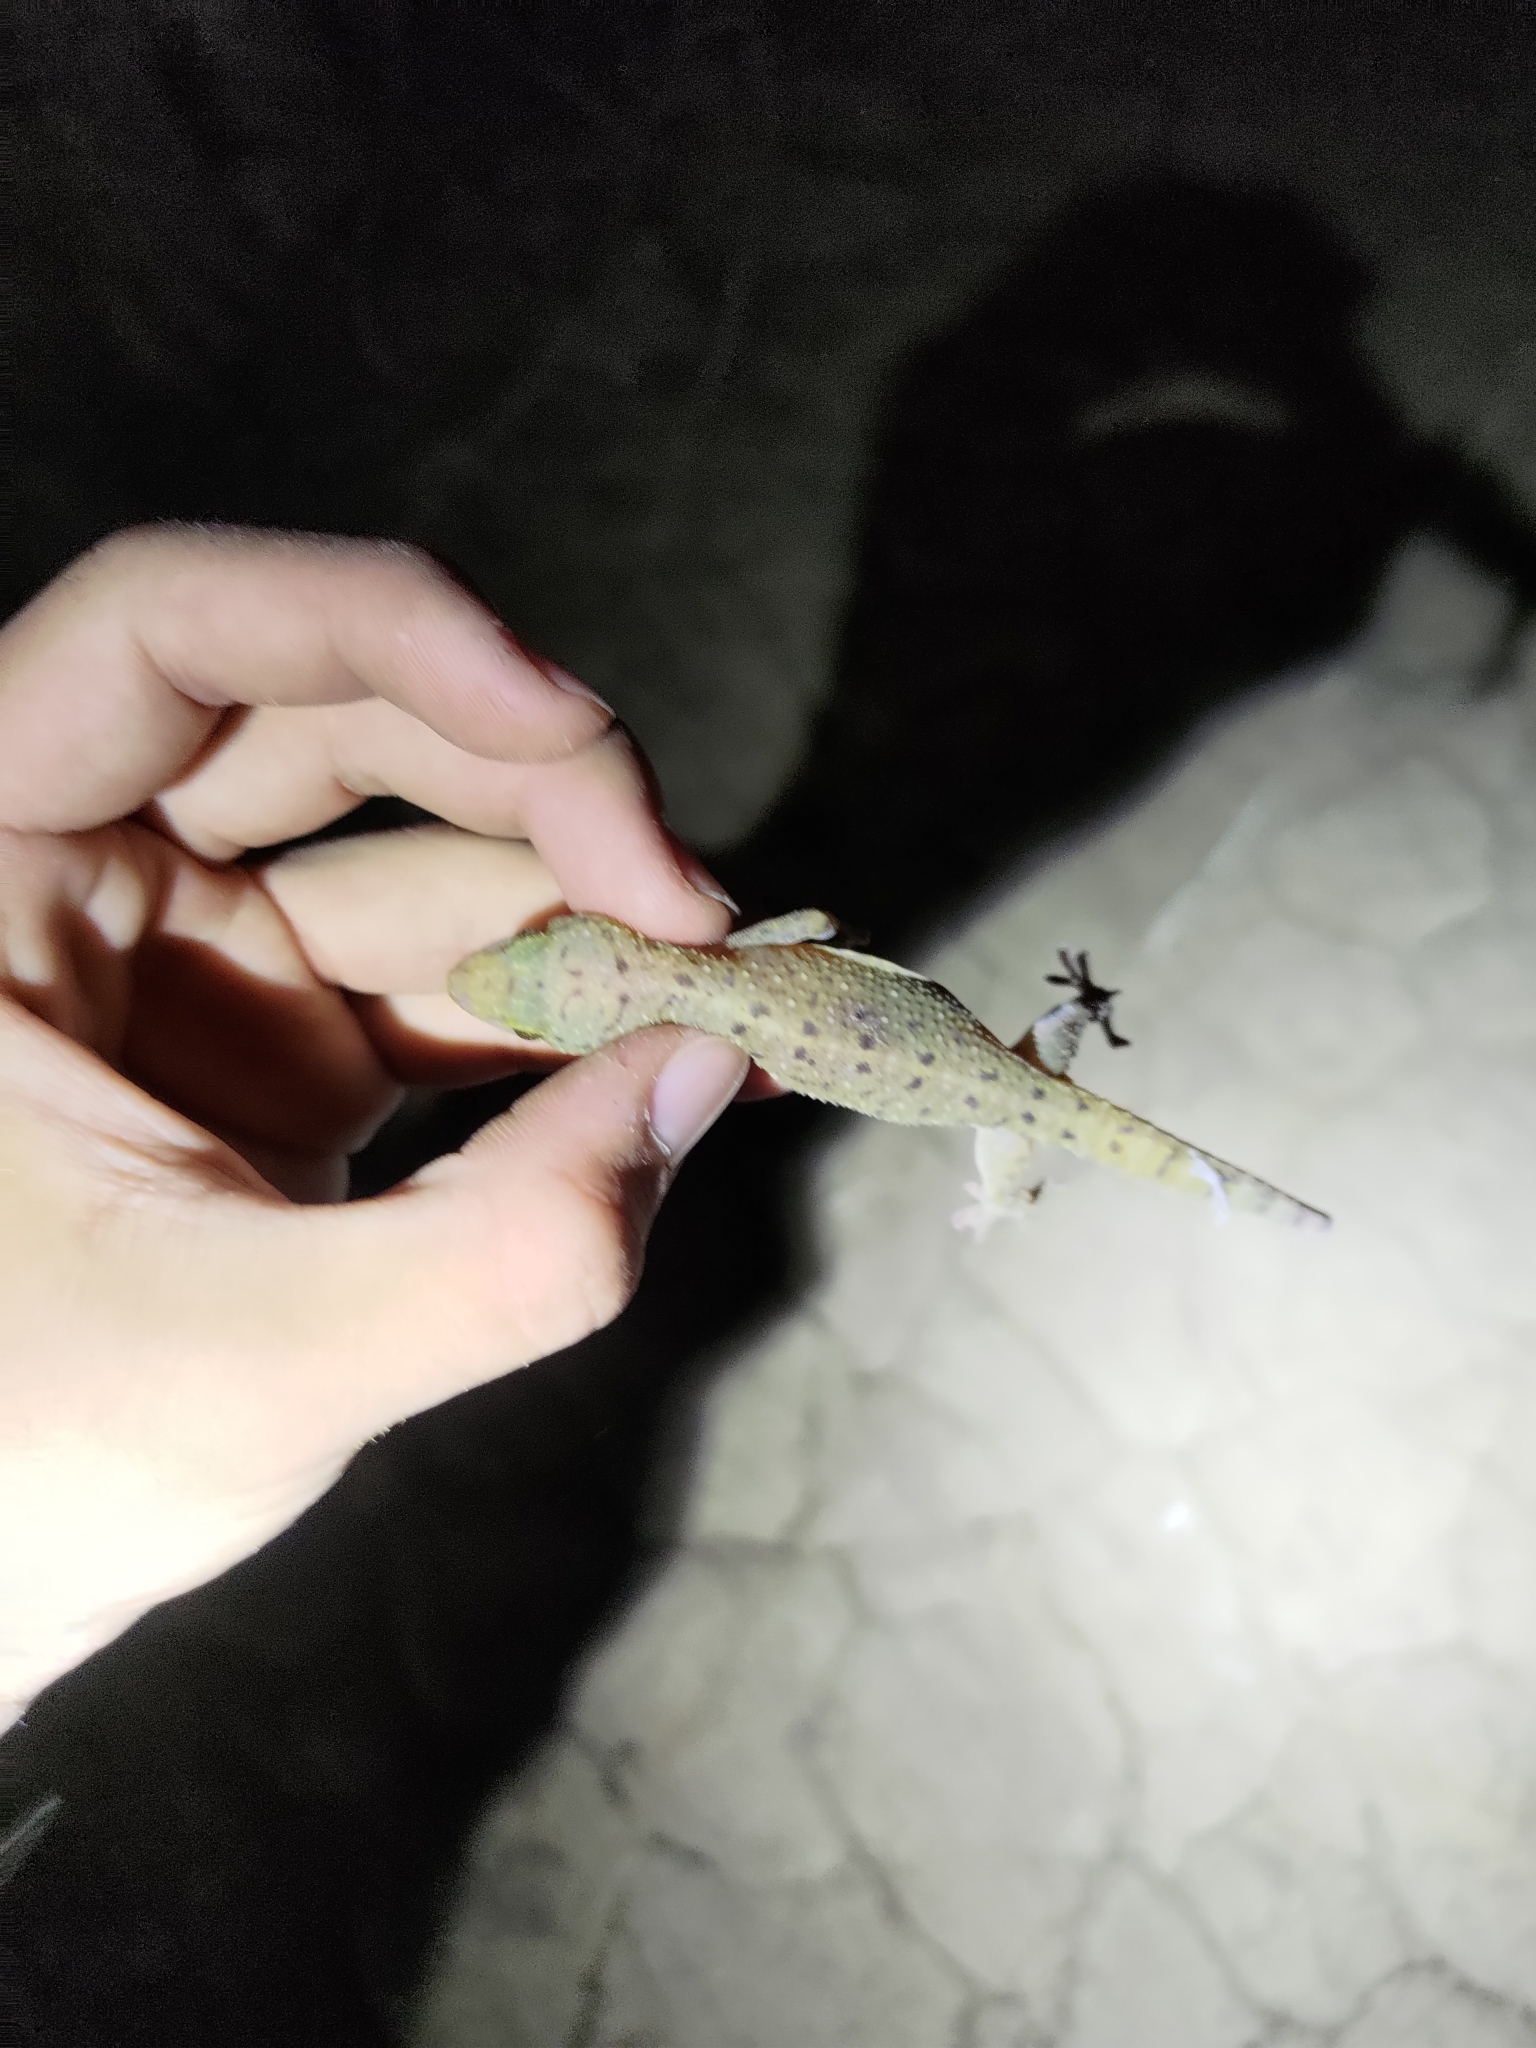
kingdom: Animalia
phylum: Chordata
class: Squamata
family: Gekkonidae
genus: Gekko
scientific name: Gekko monarchus
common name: Spotted house gecko
